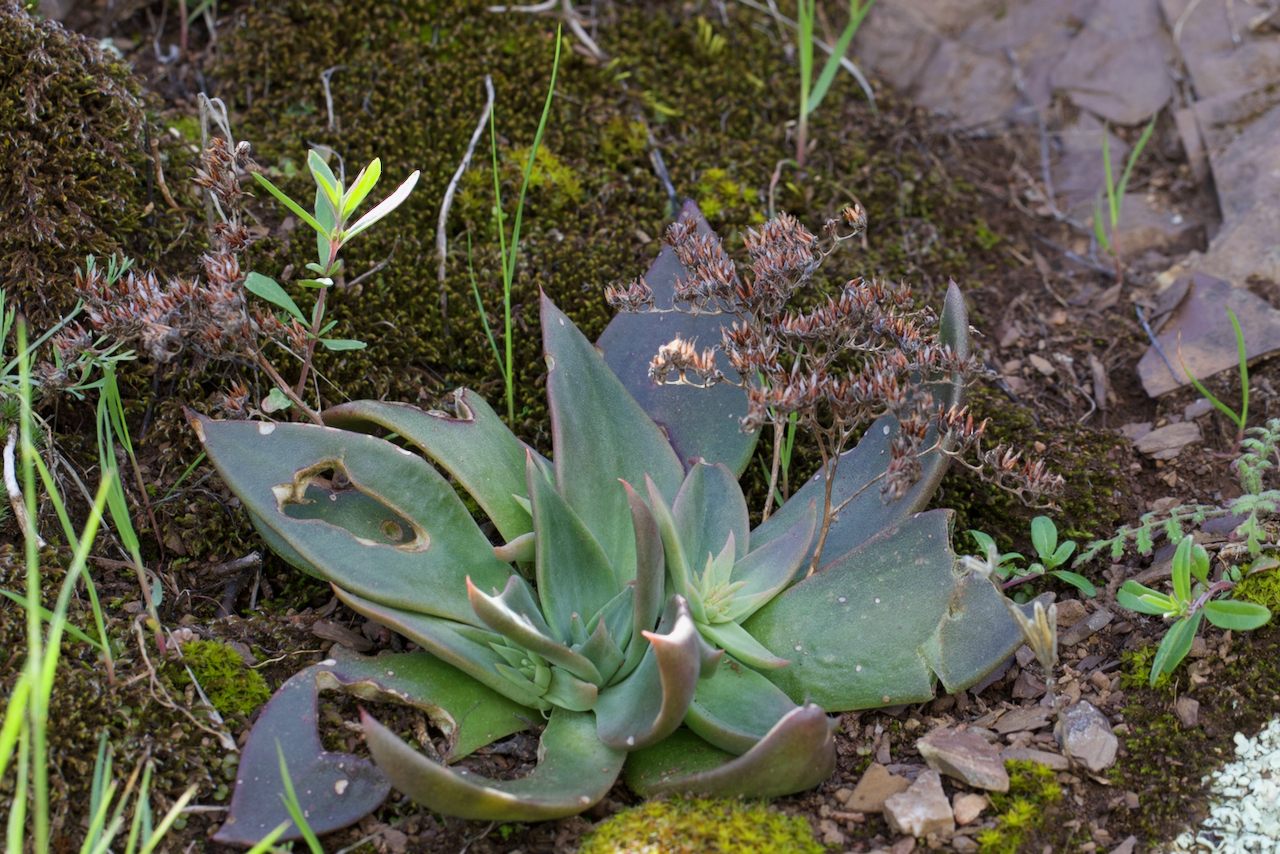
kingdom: Plantae
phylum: Tracheophyta
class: Magnoliopsida
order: Saxifragales
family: Crassulaceae
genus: Dudleya
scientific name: Dudleya cymosa
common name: Canyon dudleya
